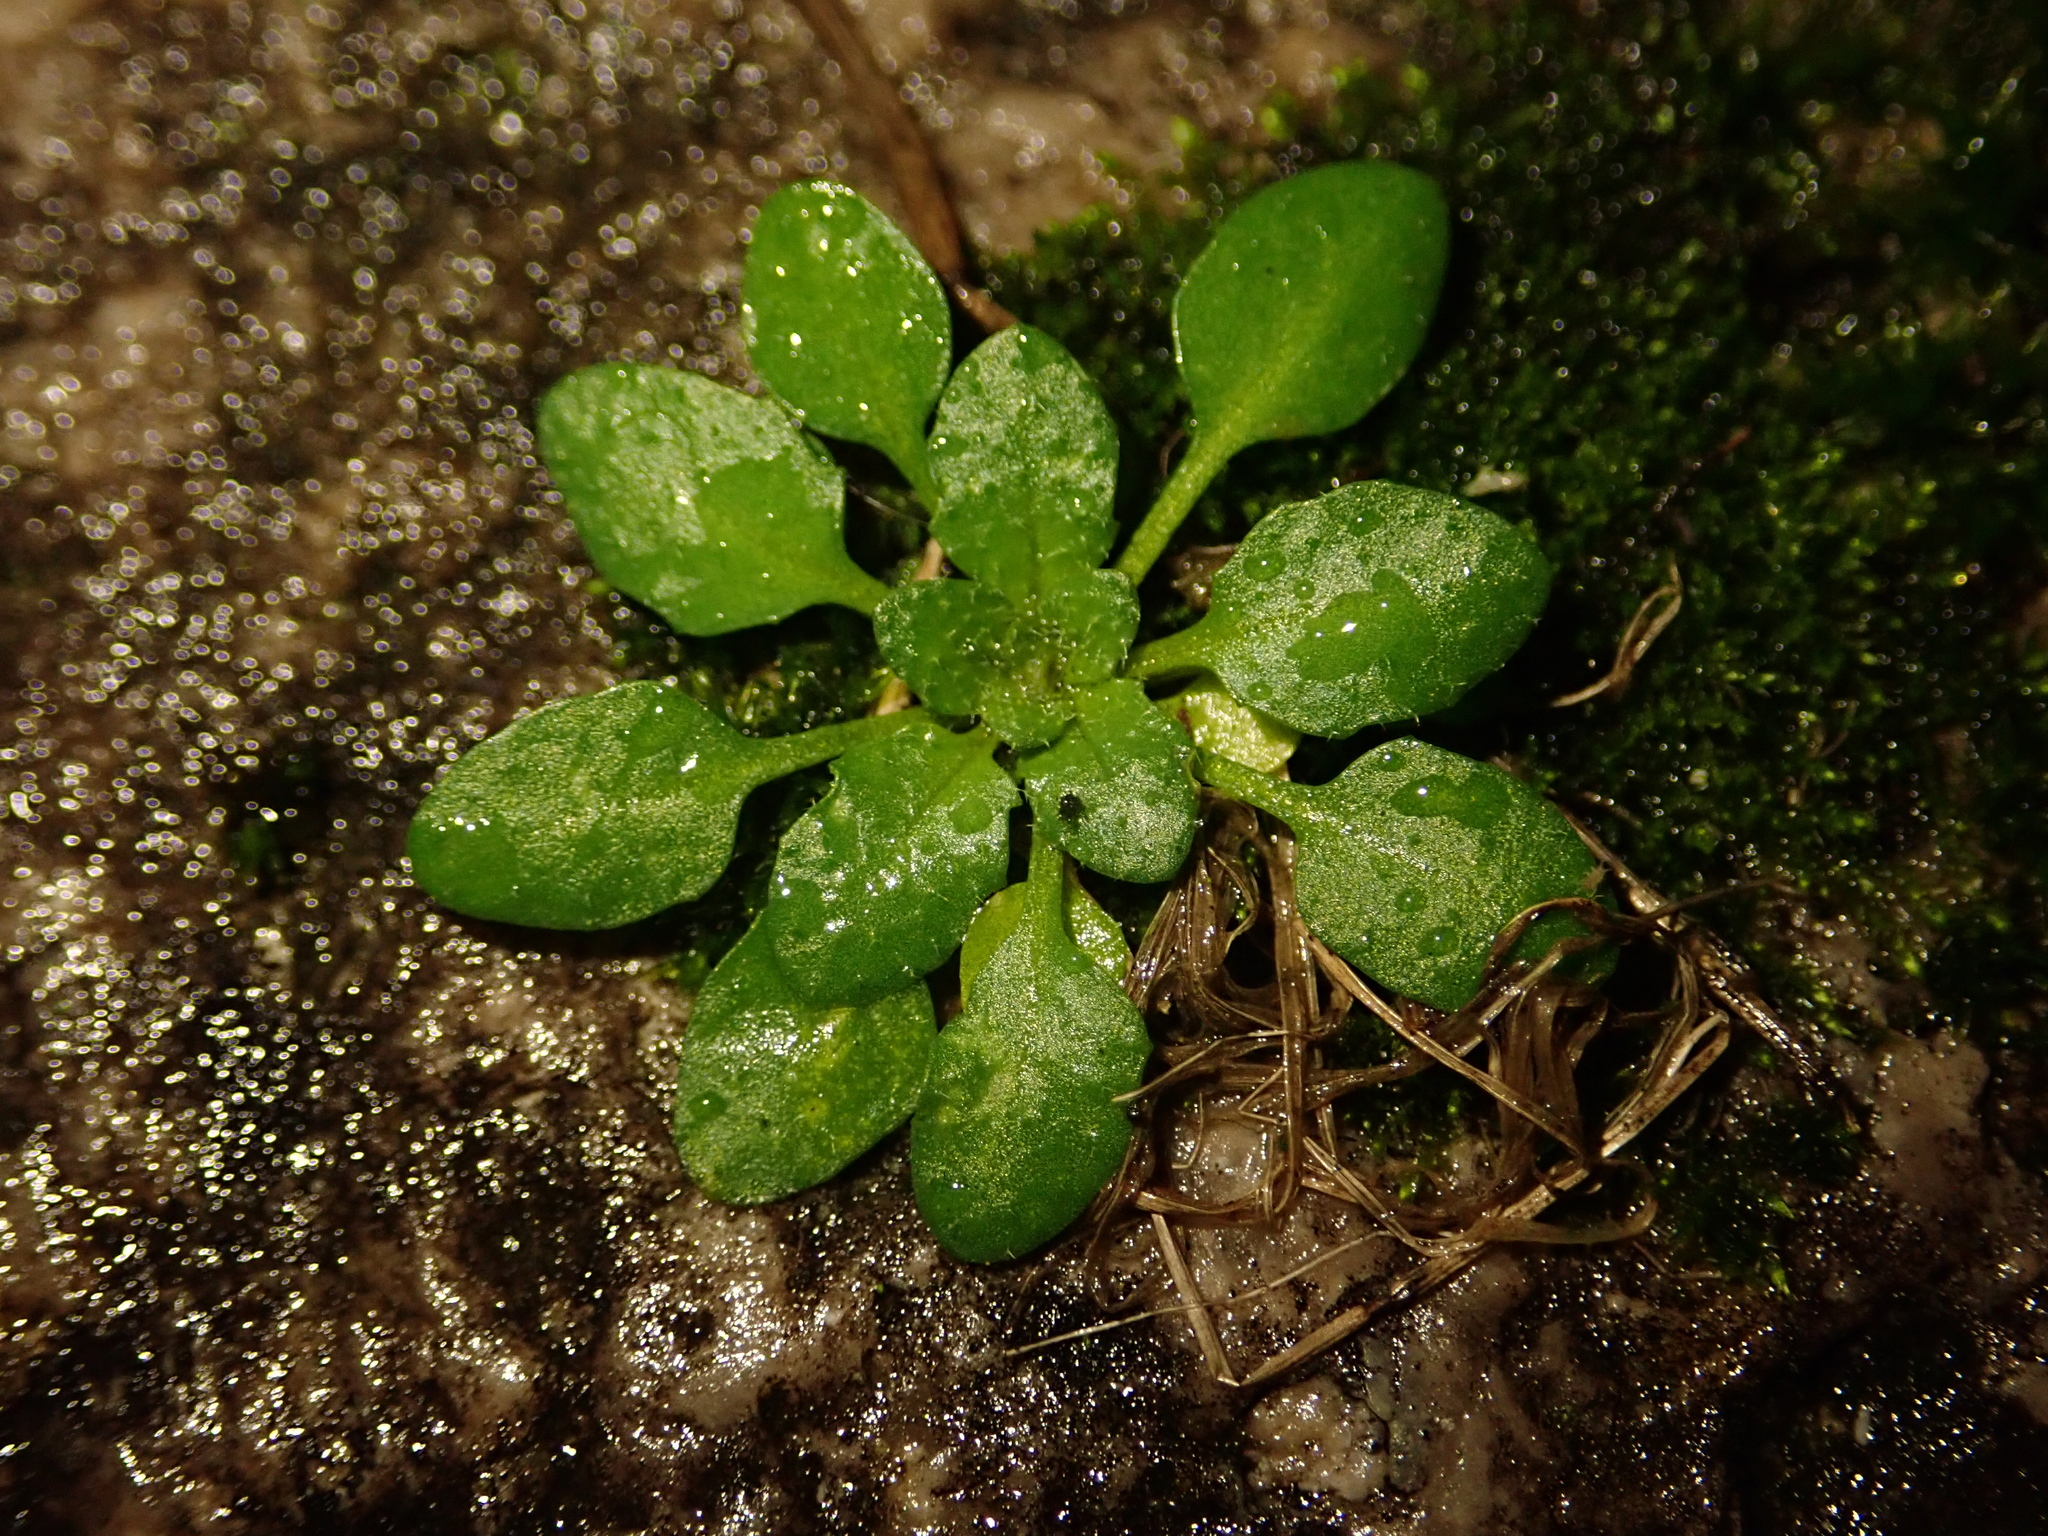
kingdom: Plantae
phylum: Tracheophyta
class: Magnoliopsida
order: Brassicales
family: Brassicaceae
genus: Arabidopsis
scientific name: Arabidopsis thaliana
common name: Thale cress
